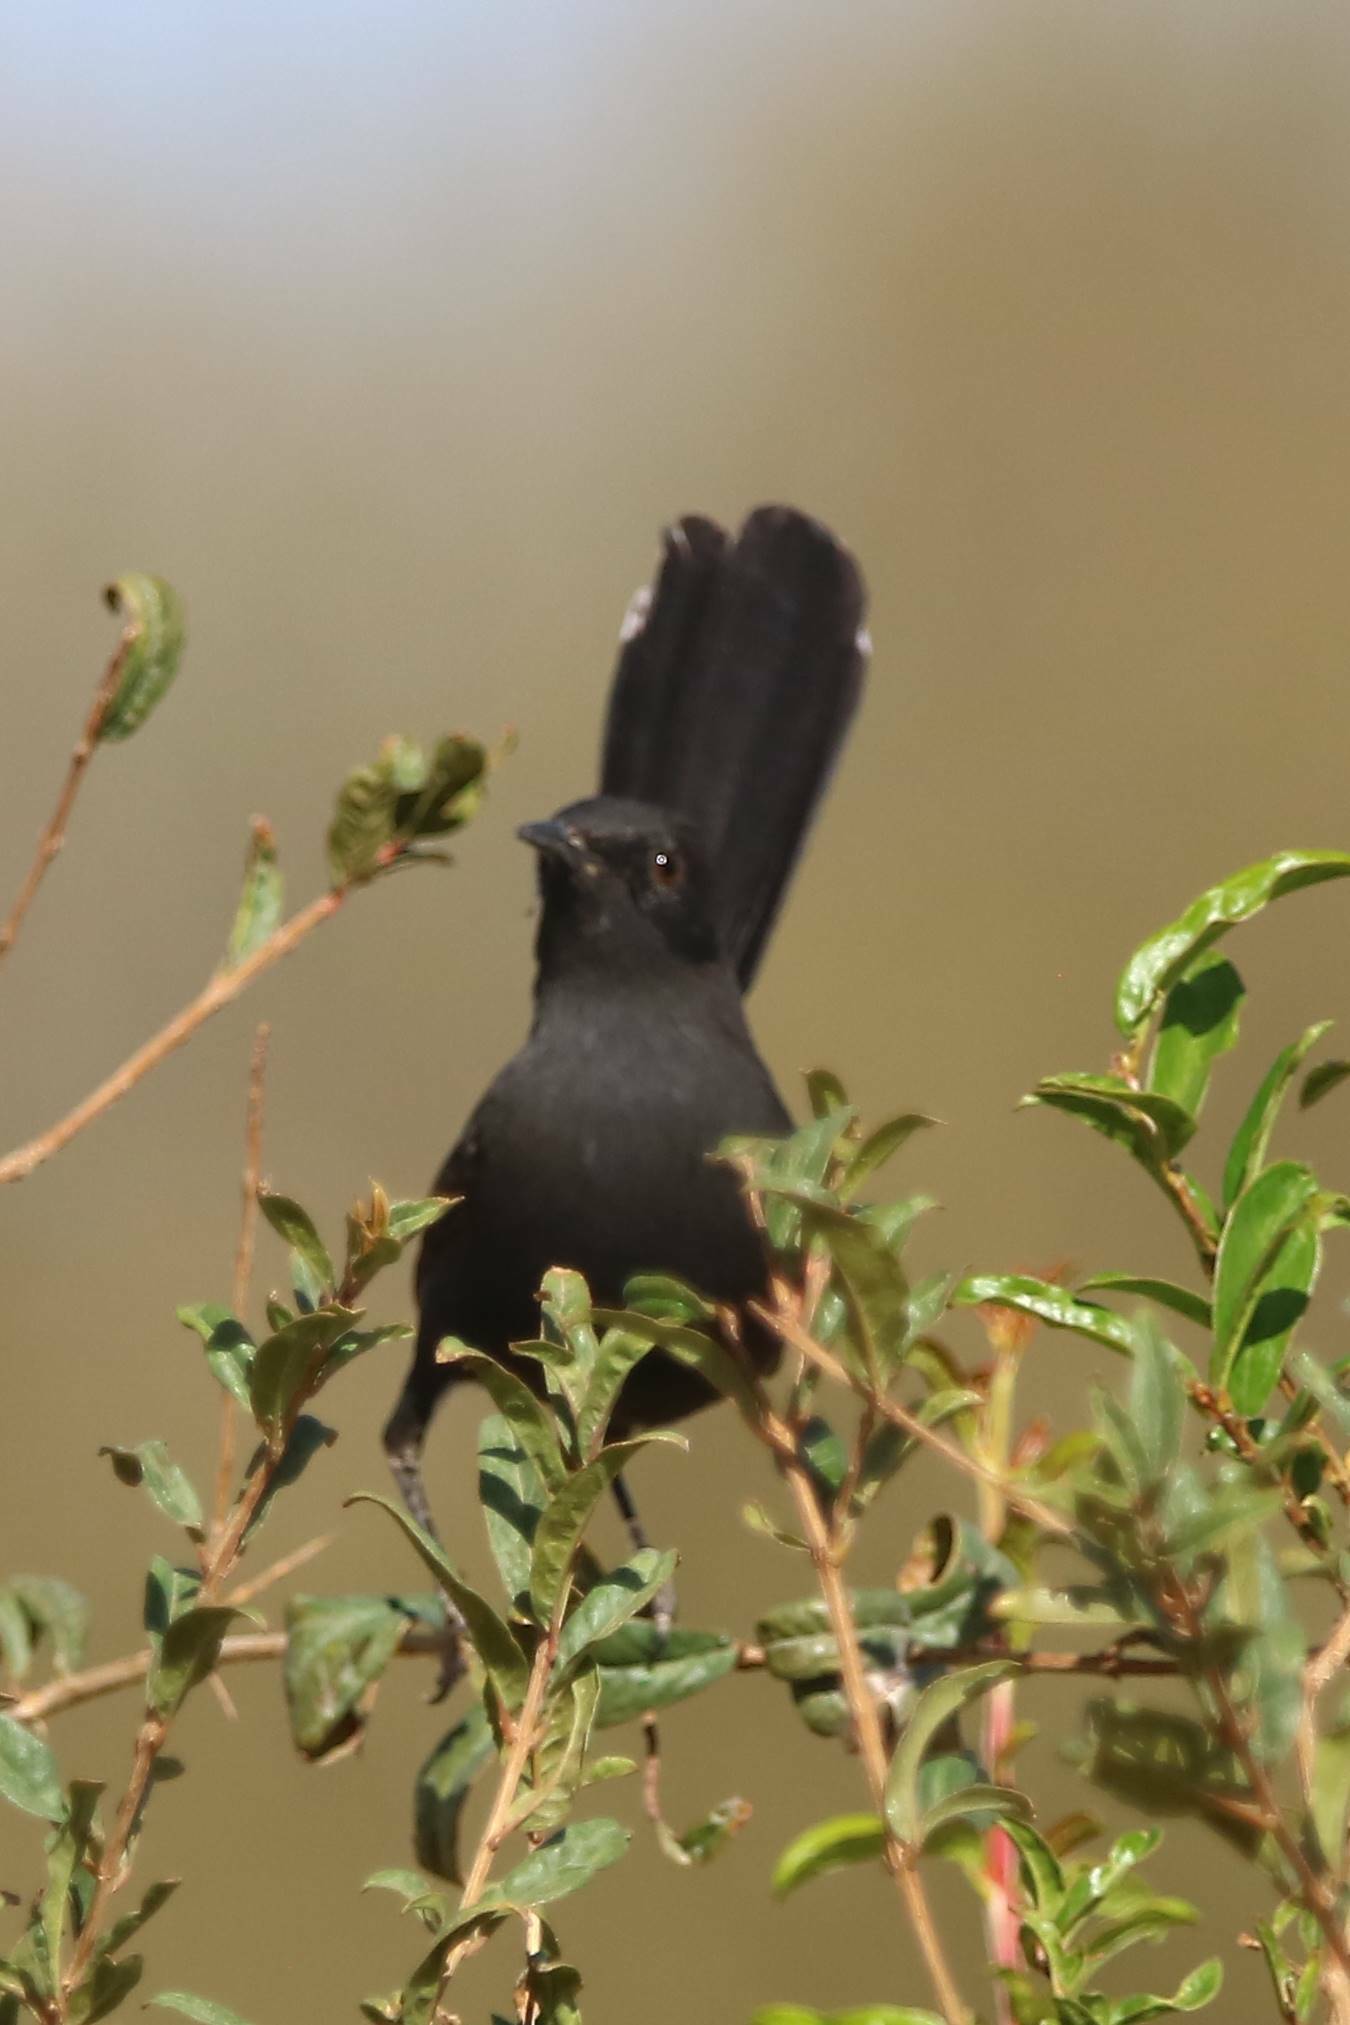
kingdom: Animalia
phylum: Chordata
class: Aves
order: Passeriformes
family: Muscicapidae
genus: Cercotrichas
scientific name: Cercotrichas podobe
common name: Black scrub robin
